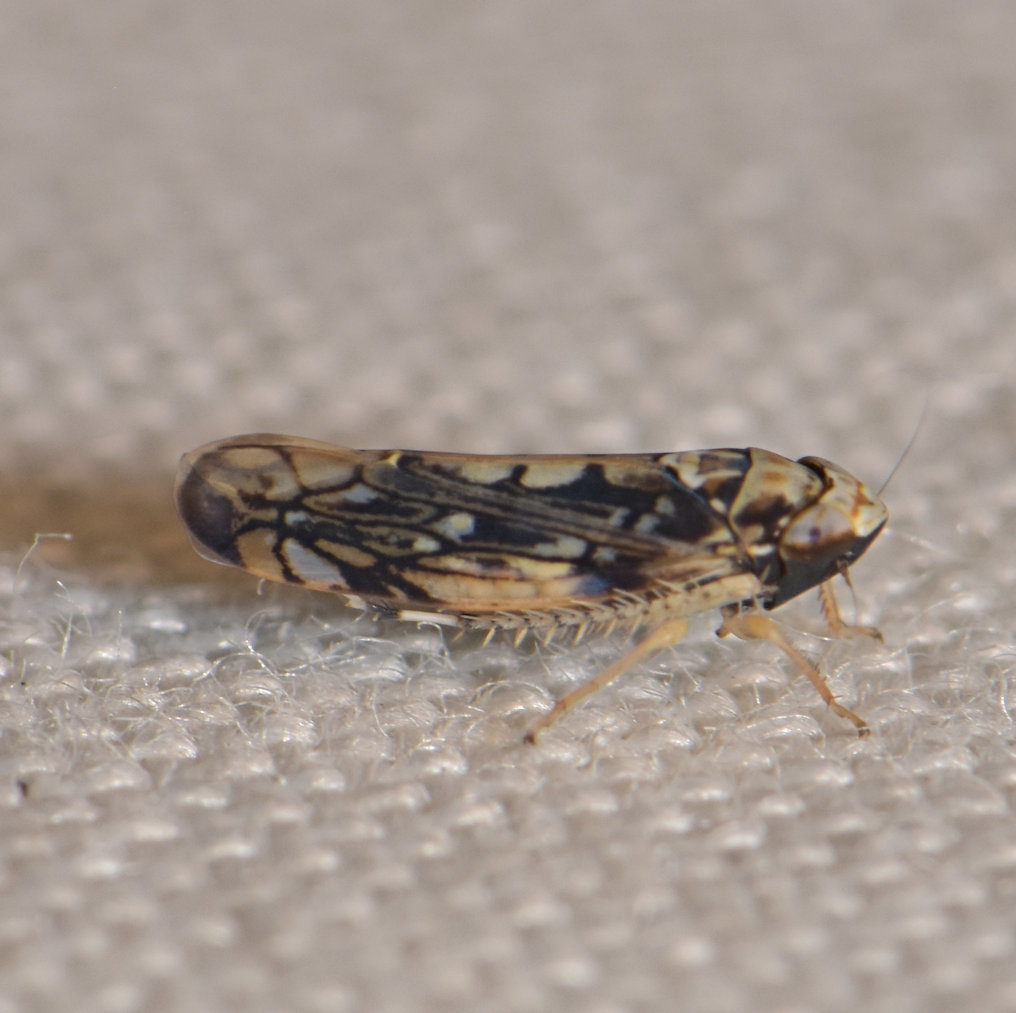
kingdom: Animalia
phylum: Arthropoda
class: Insecta
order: Hemiptera
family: Cicadellidae
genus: Scaphoideus
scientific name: Scaphoideus melanotus
